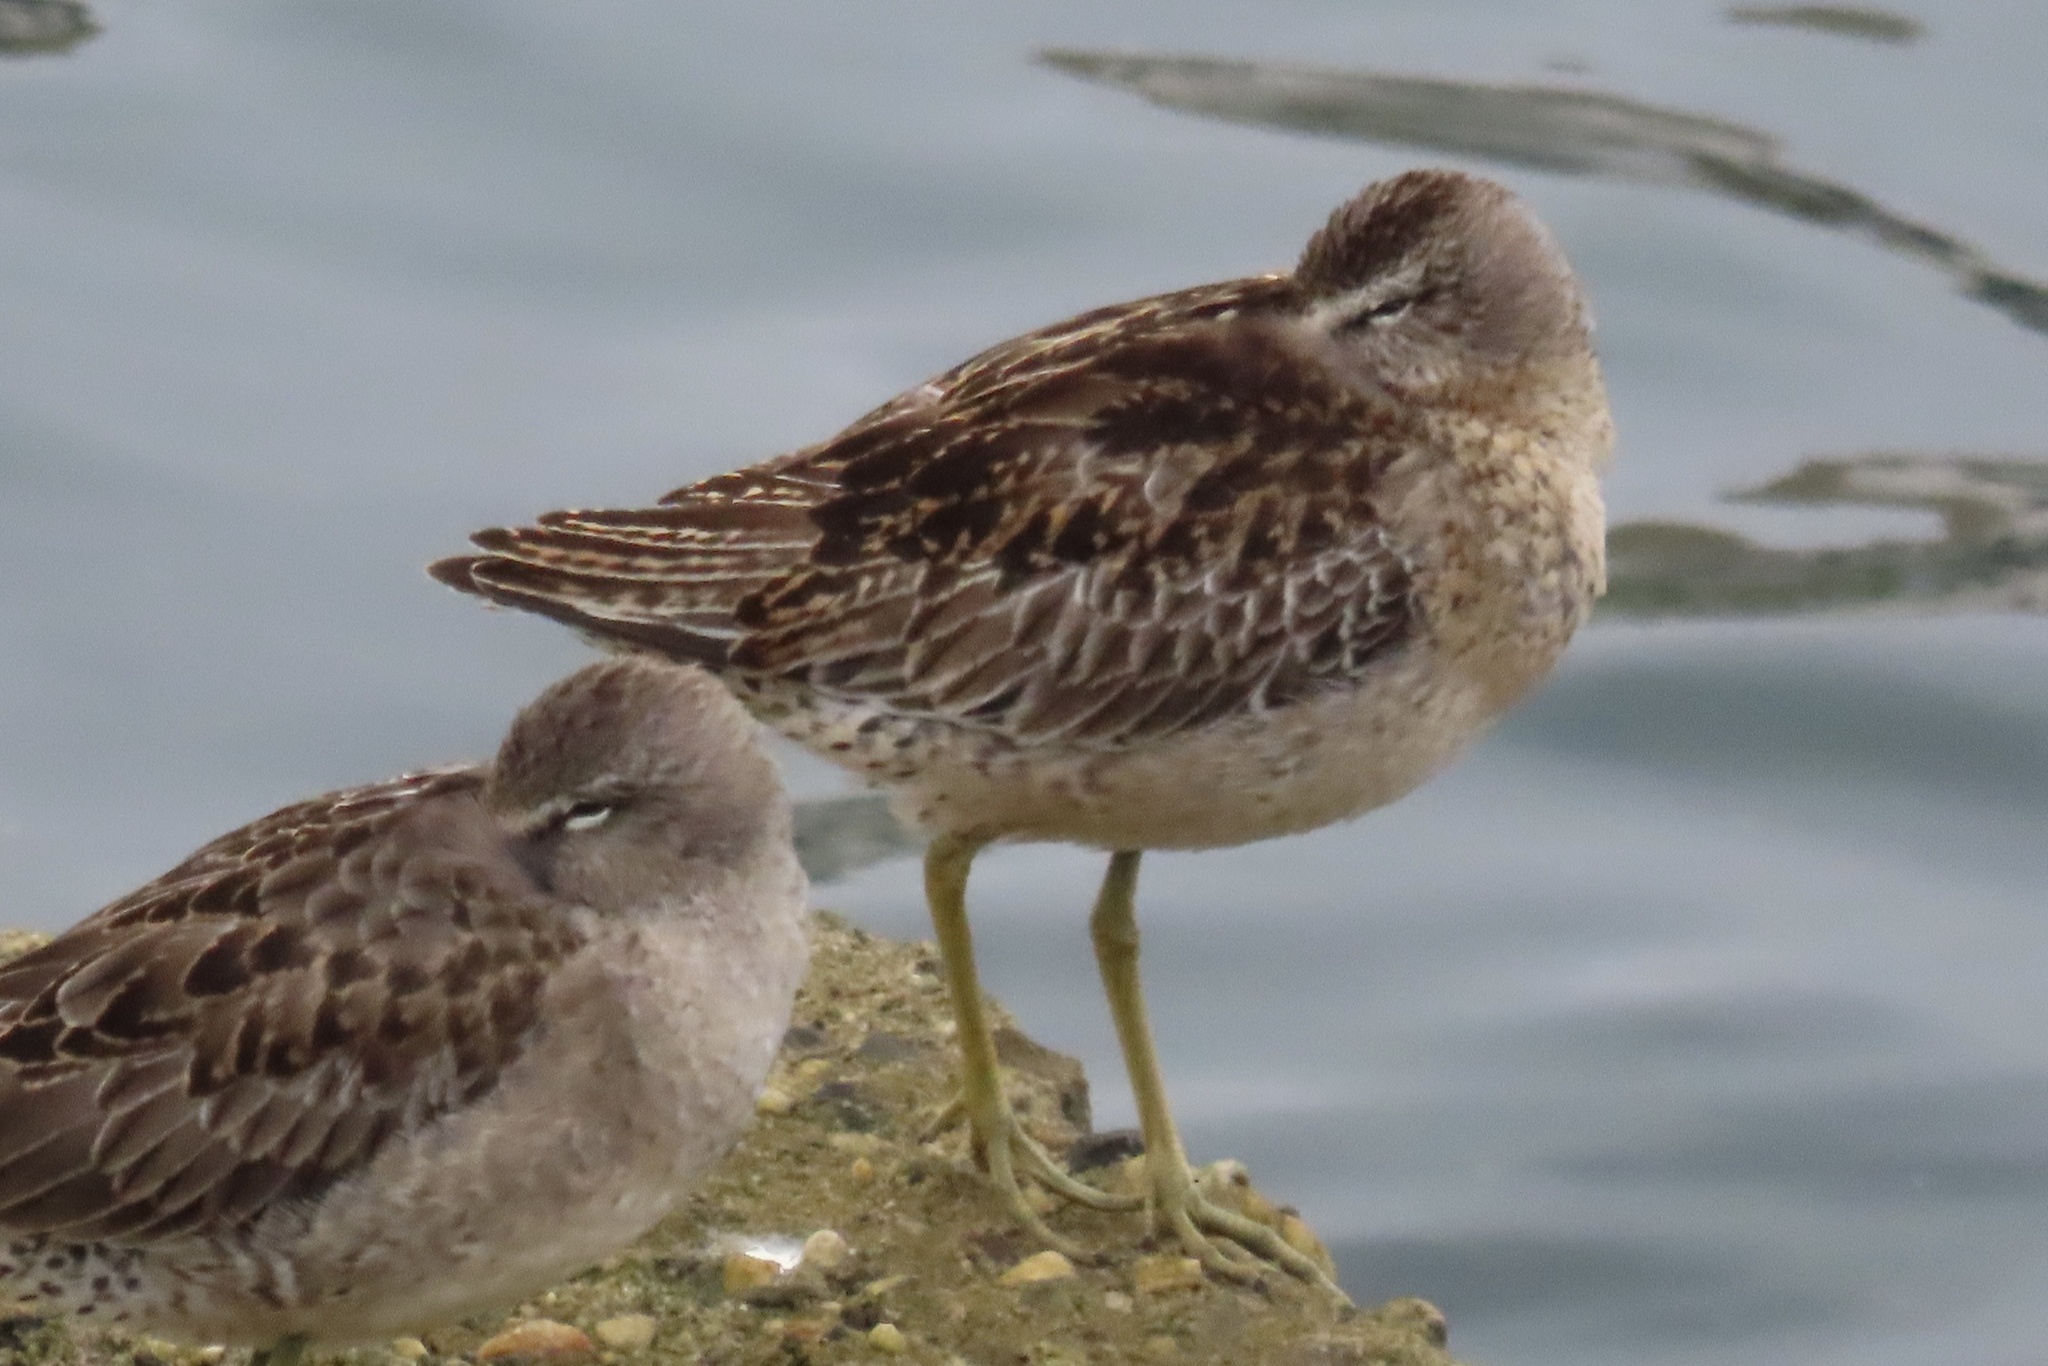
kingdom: Animalia
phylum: Chordata
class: Aves
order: Charadriiformes
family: Scolopacidae
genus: Limnodromus
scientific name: Limnodromus griseus
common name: Short-billed dowitcher
